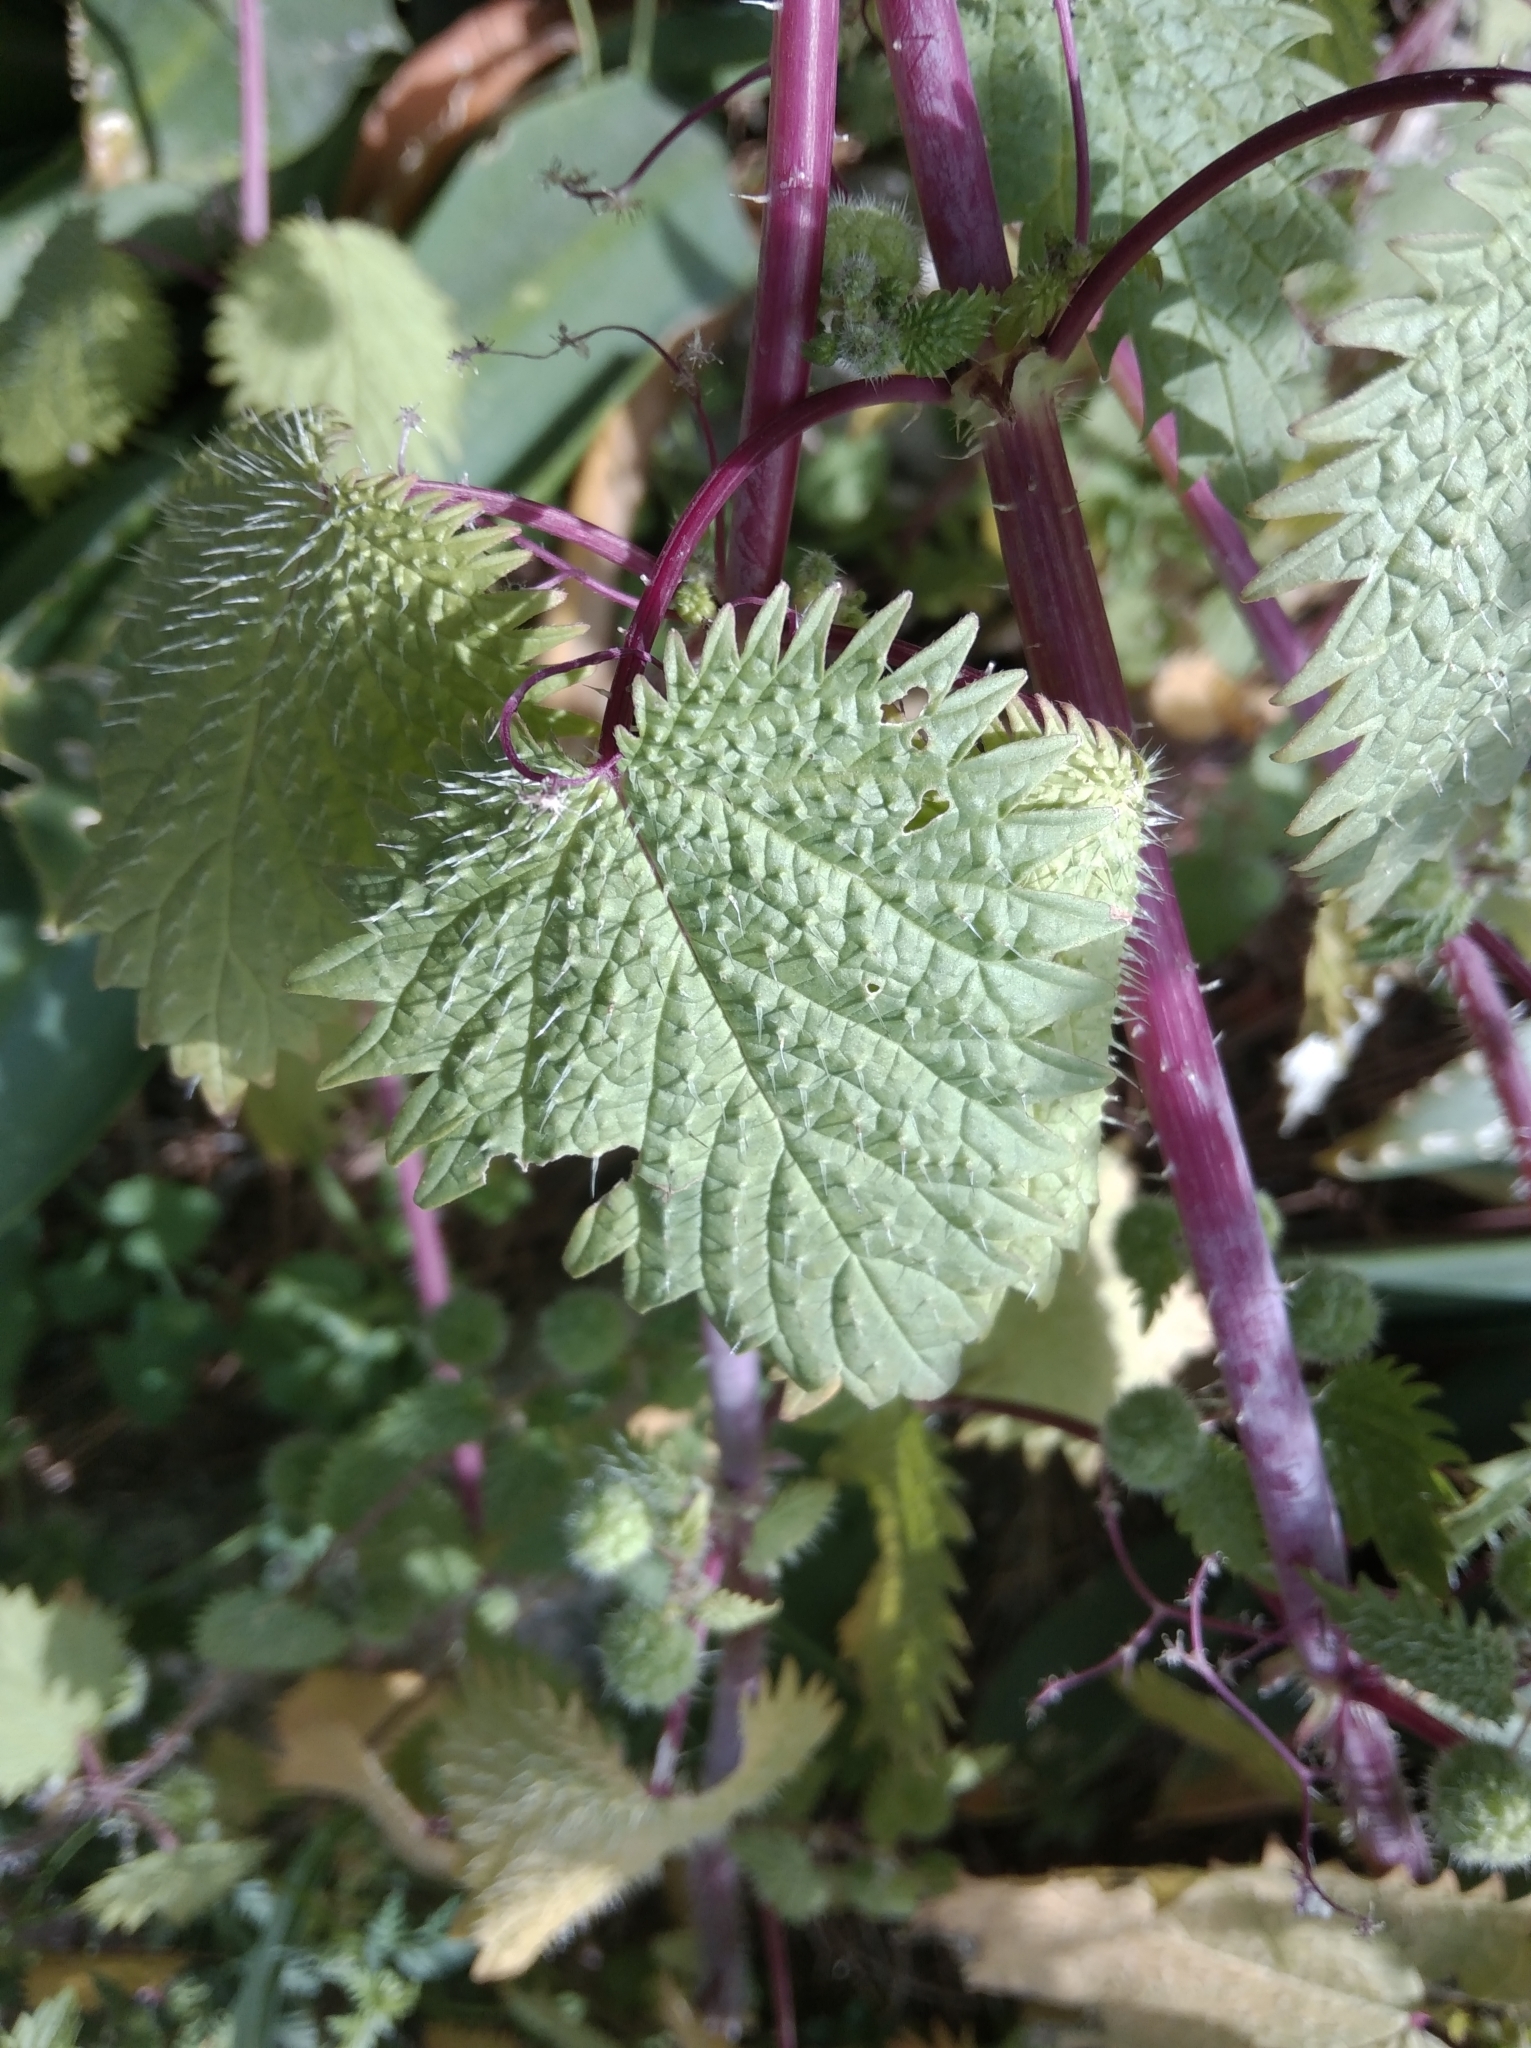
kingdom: Plantae
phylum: Tracheophyta
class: Magnoliopsida
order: Rosales
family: Urticaceae
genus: Urtica
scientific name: Urtica pilulifera
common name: Roman nettle
